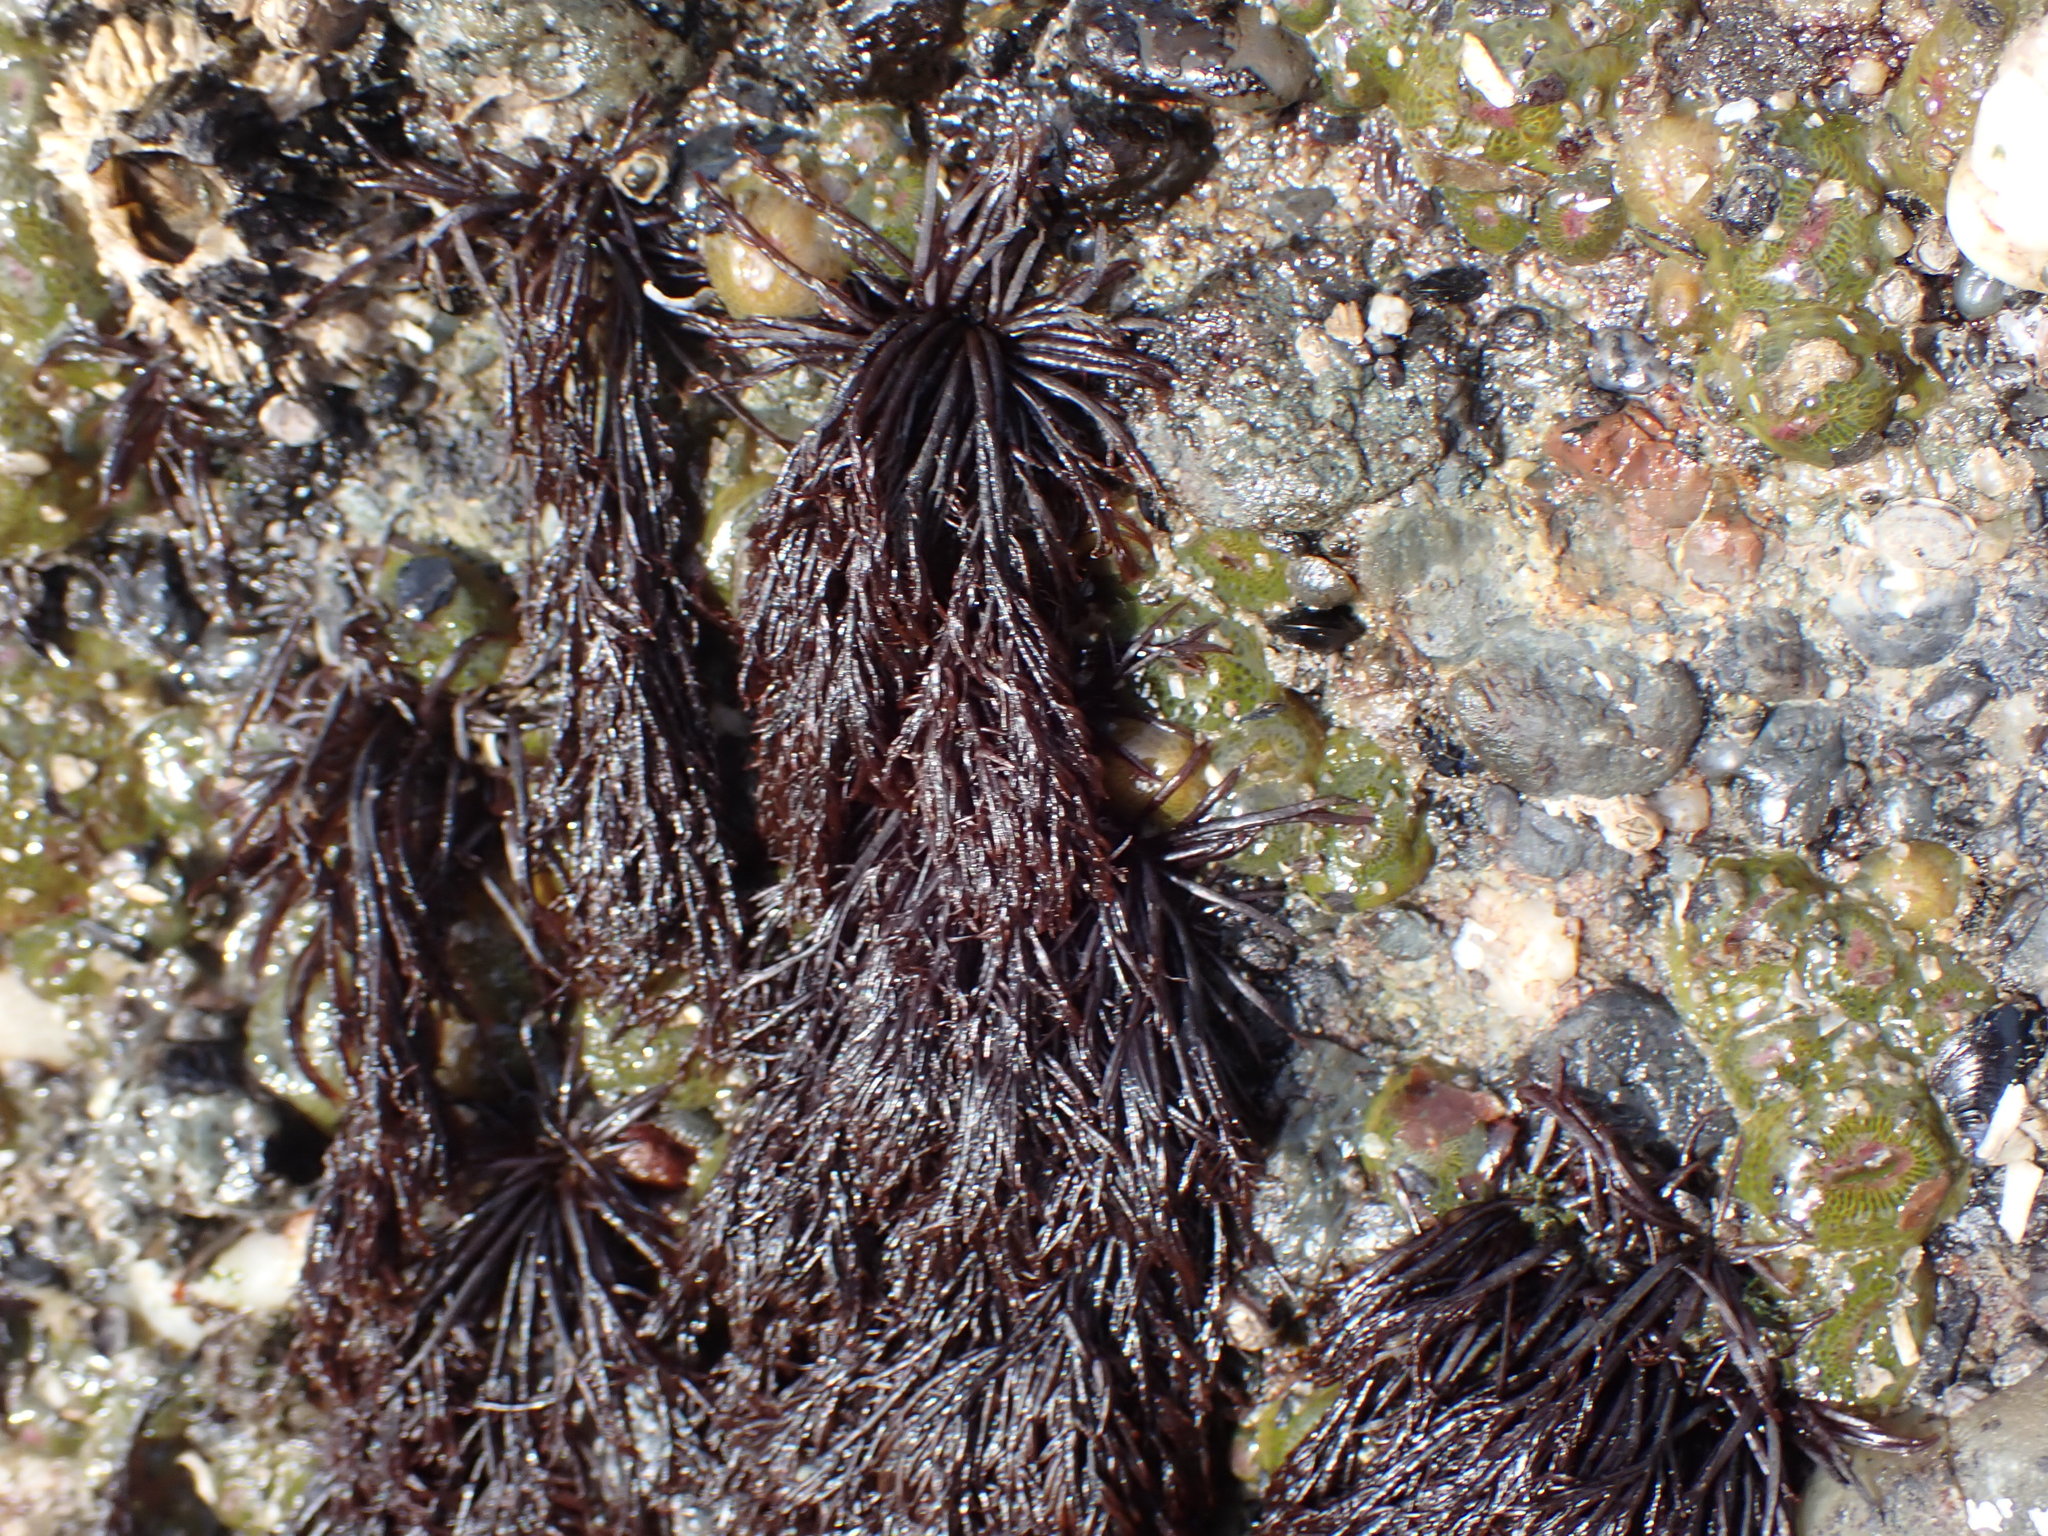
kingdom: Plantae
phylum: Rhodophyta
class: Florideophyceae
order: Gigartinales
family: Dumontiaceae
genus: Cryptosiphonia
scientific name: Cryptosiphonia woodii
